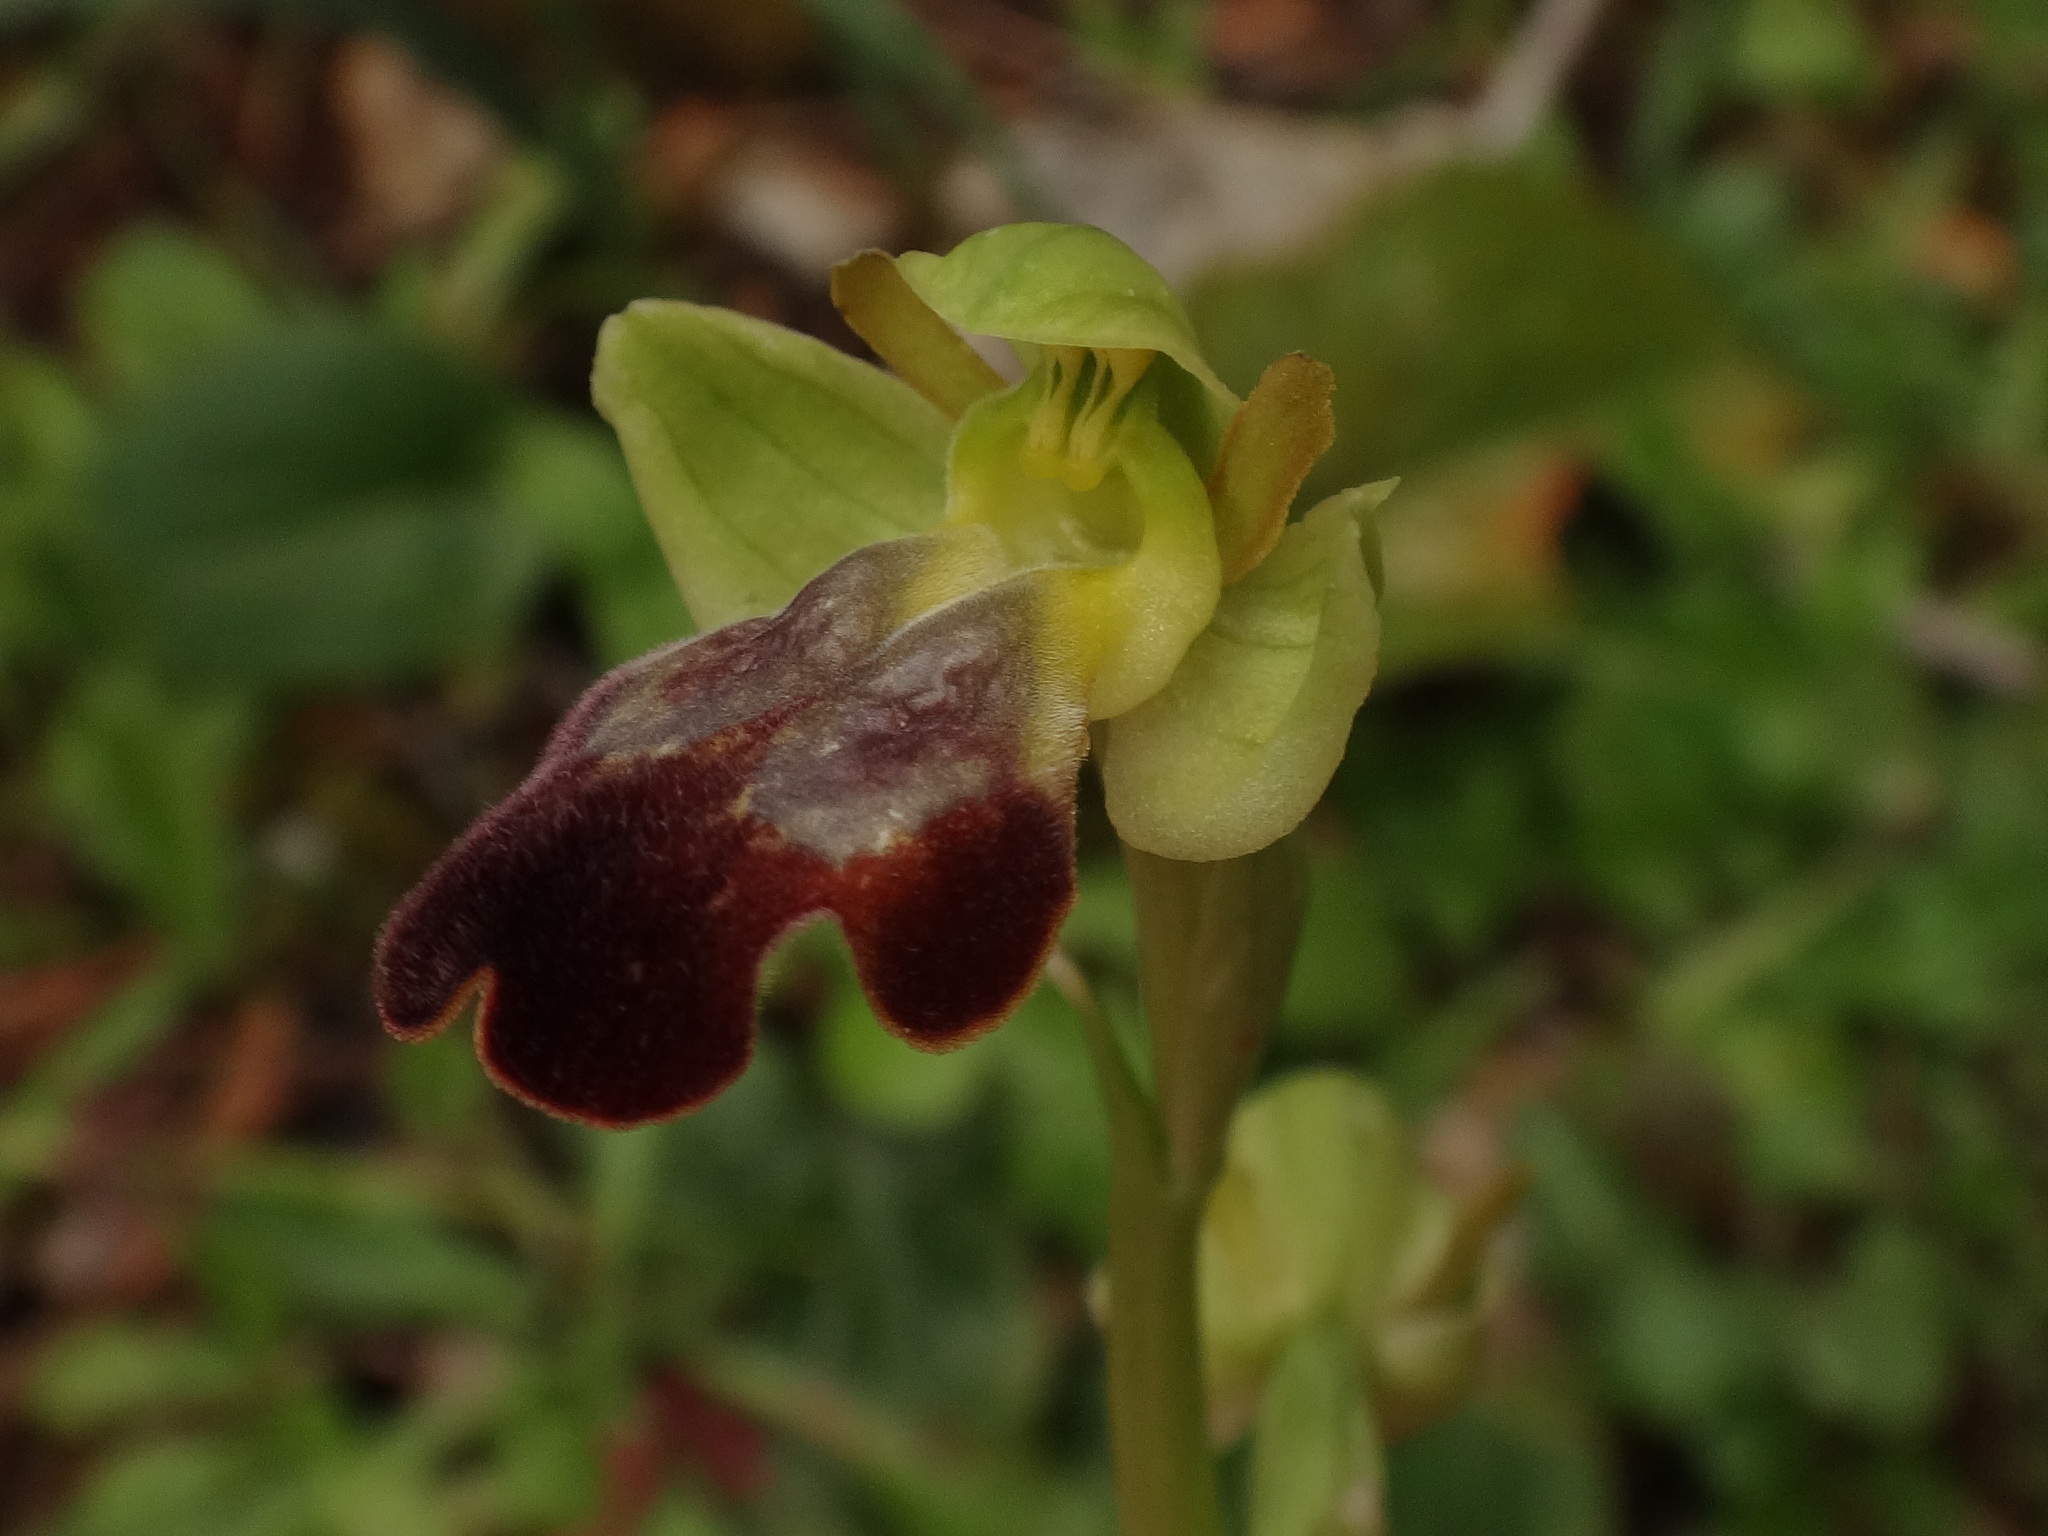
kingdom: Plantae
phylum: Tracheophyta
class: Liliopsida
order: Asparagales
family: Orchidaceae
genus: Ophrys
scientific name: Ophrys fusca
